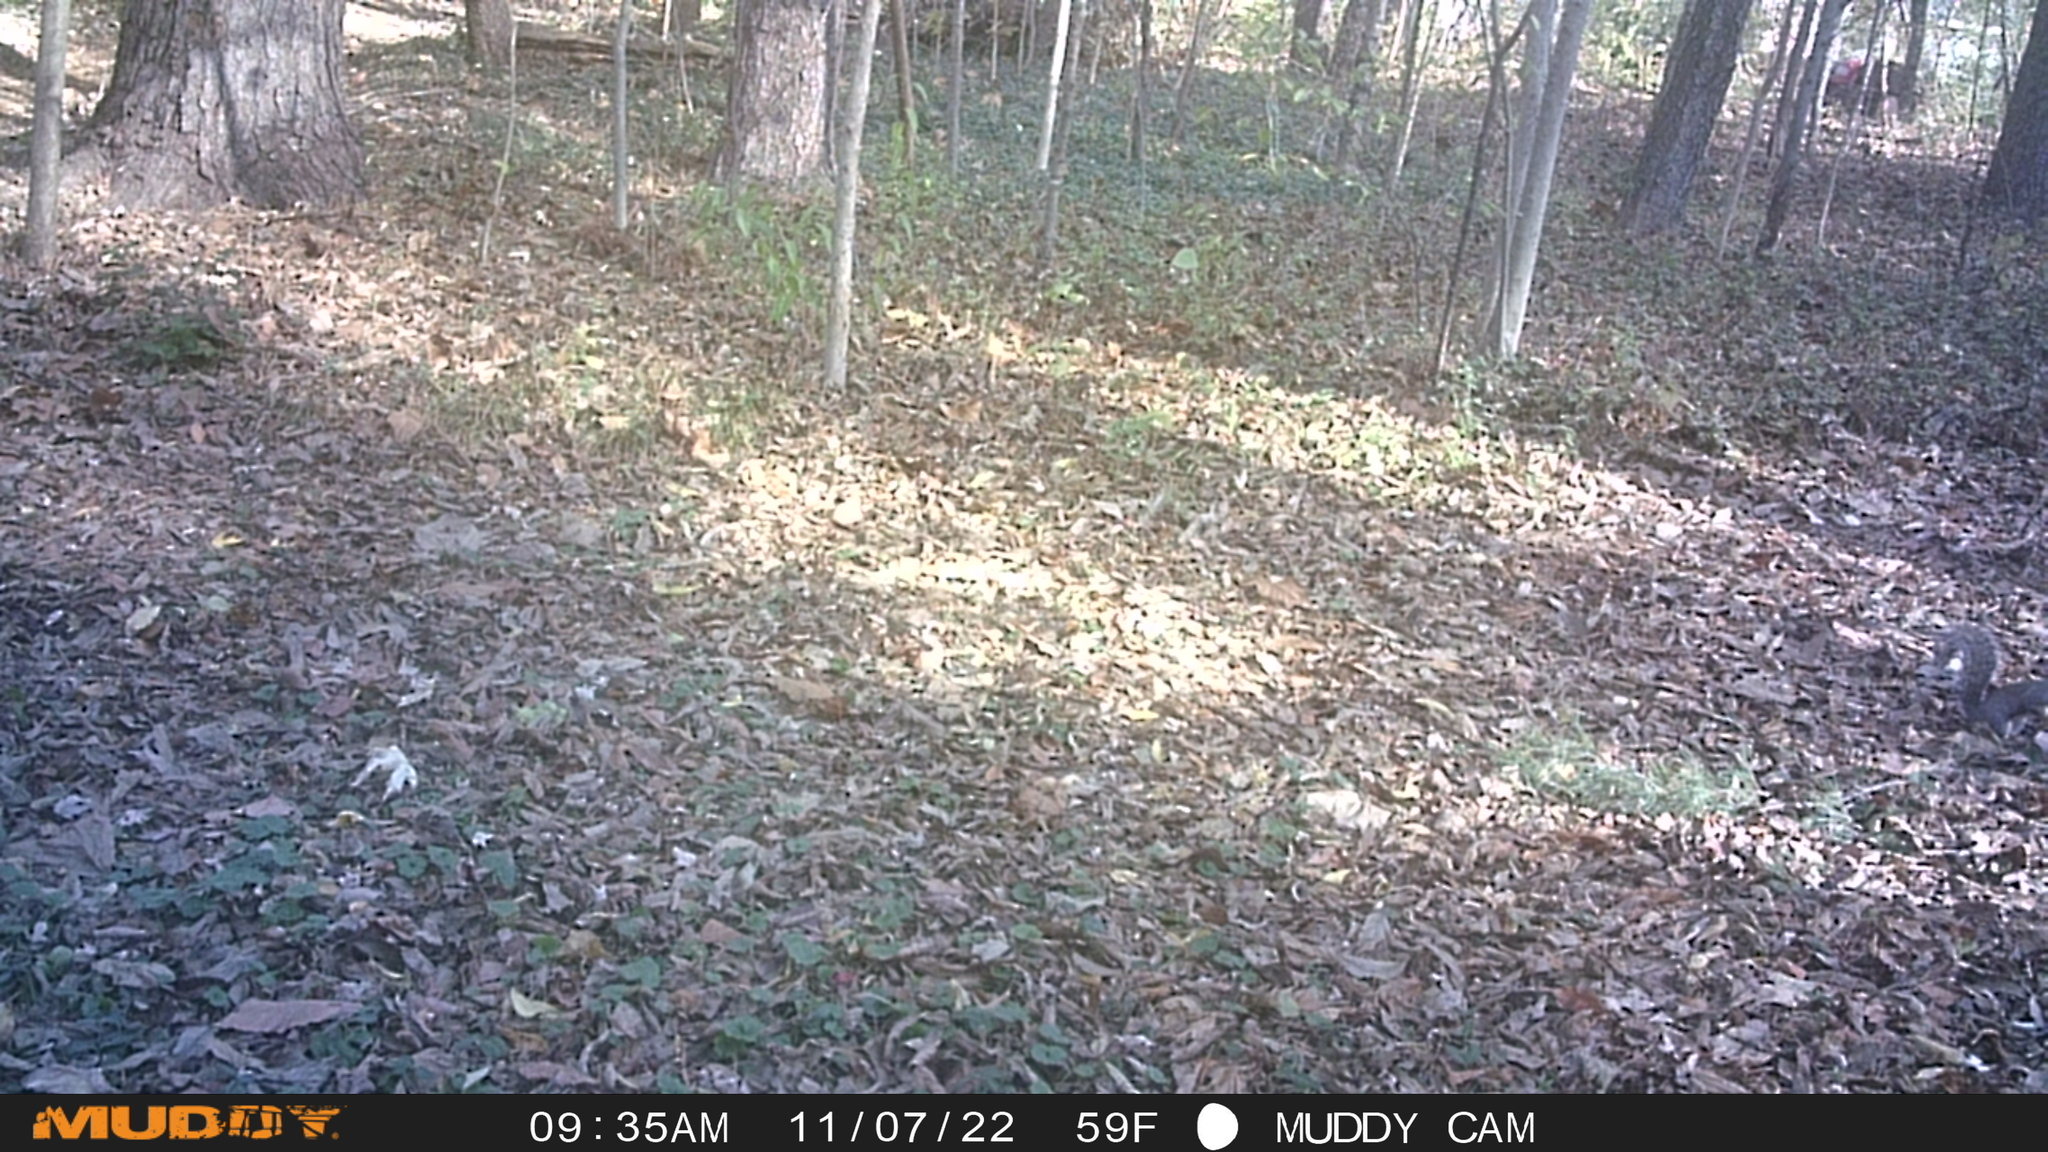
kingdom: Animalia
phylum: Chordata
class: Mammalia
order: Rodentia
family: Sciuridae
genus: Sciurus
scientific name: Sciurus carolinensis
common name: Eastern gray squirrel
